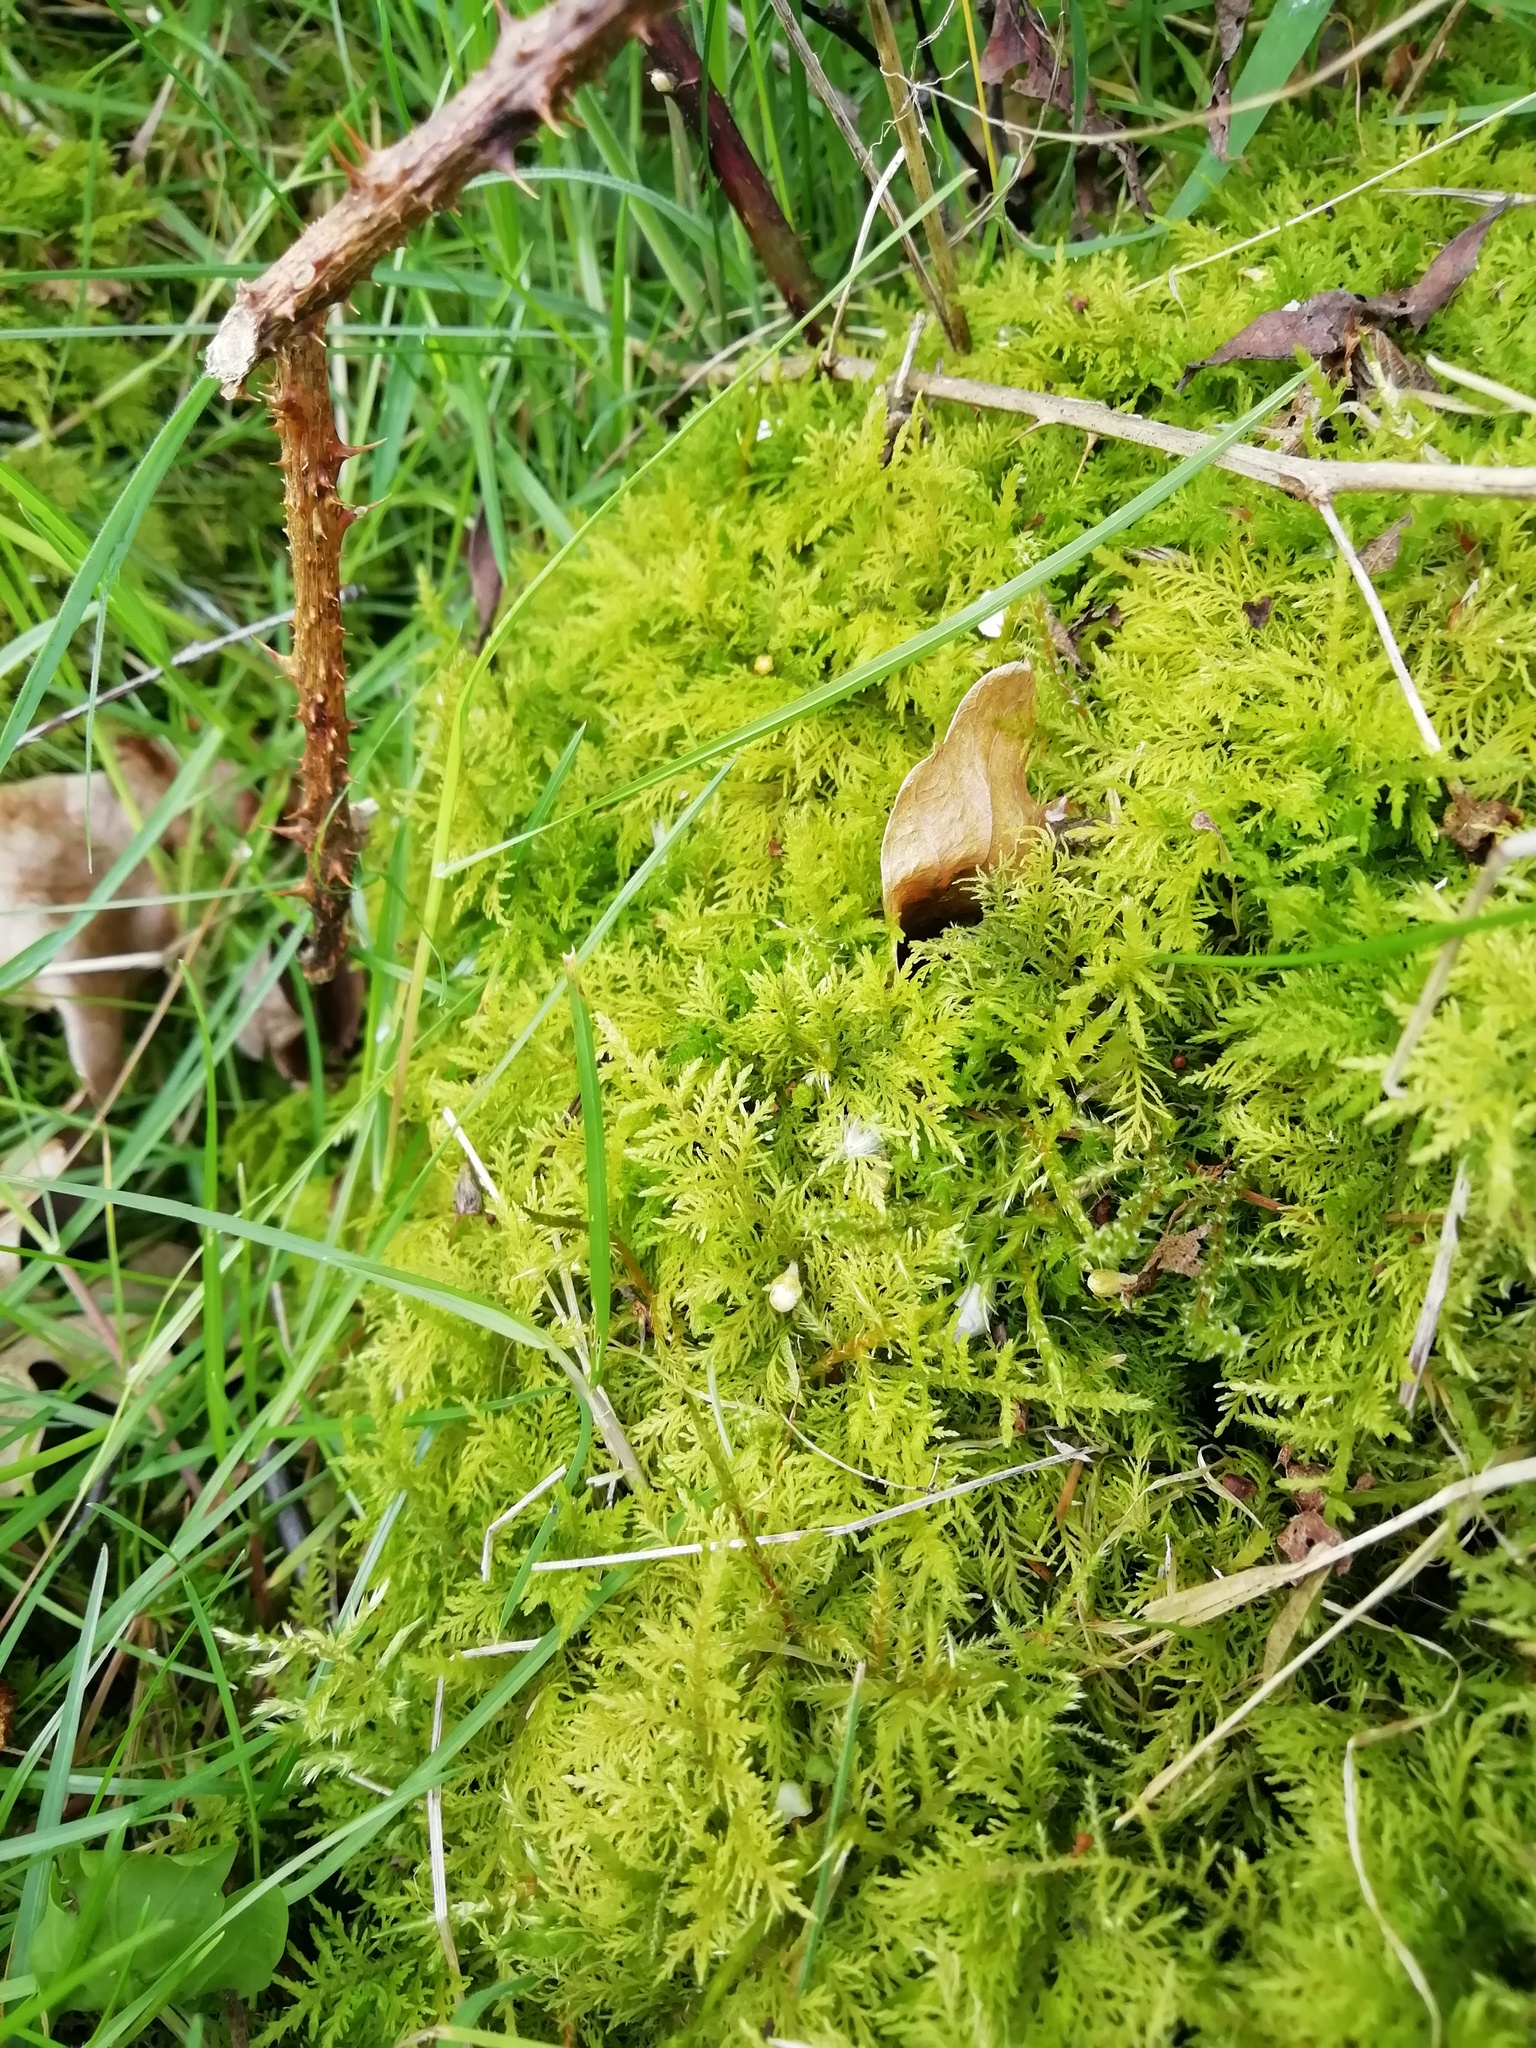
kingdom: Plantae
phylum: Bryophyta
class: Bryopsida
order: Hypnales
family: Thuidiaceae
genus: Thuidium
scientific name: Thuidium tamariscinum
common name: Common tamarisk-moss
